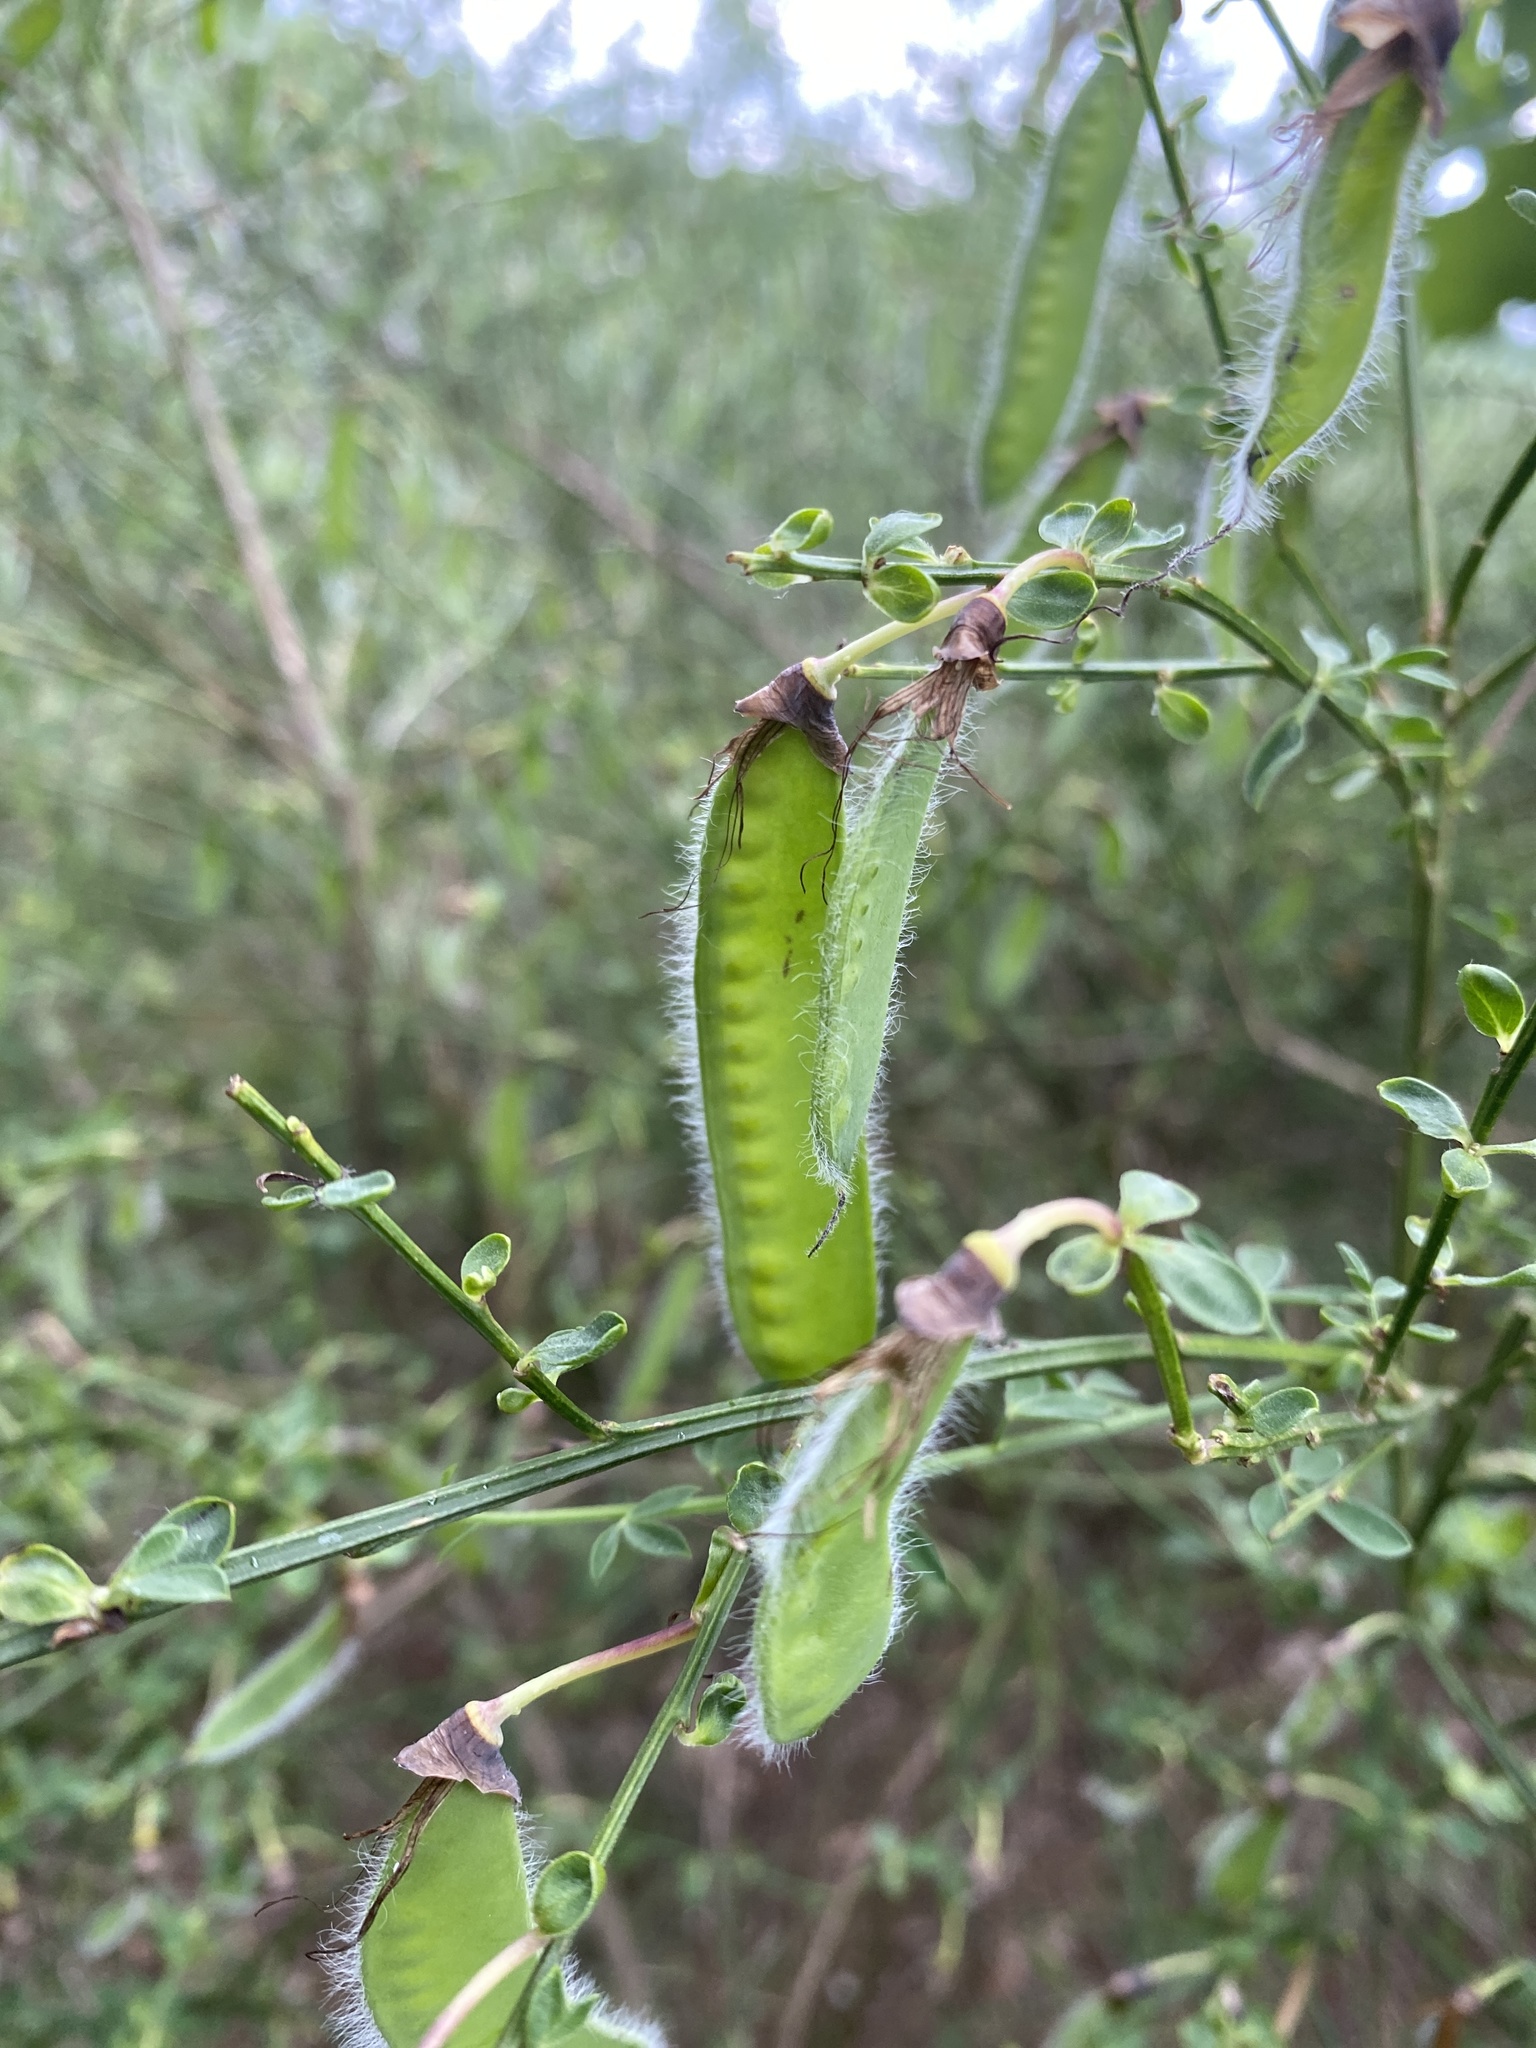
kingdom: Plantae
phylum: Tracheophyta
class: Magnoliopsida
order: Fabales
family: Fabaceae
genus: Cytisus
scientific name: Cytisus scoparius
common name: Scotch broom
